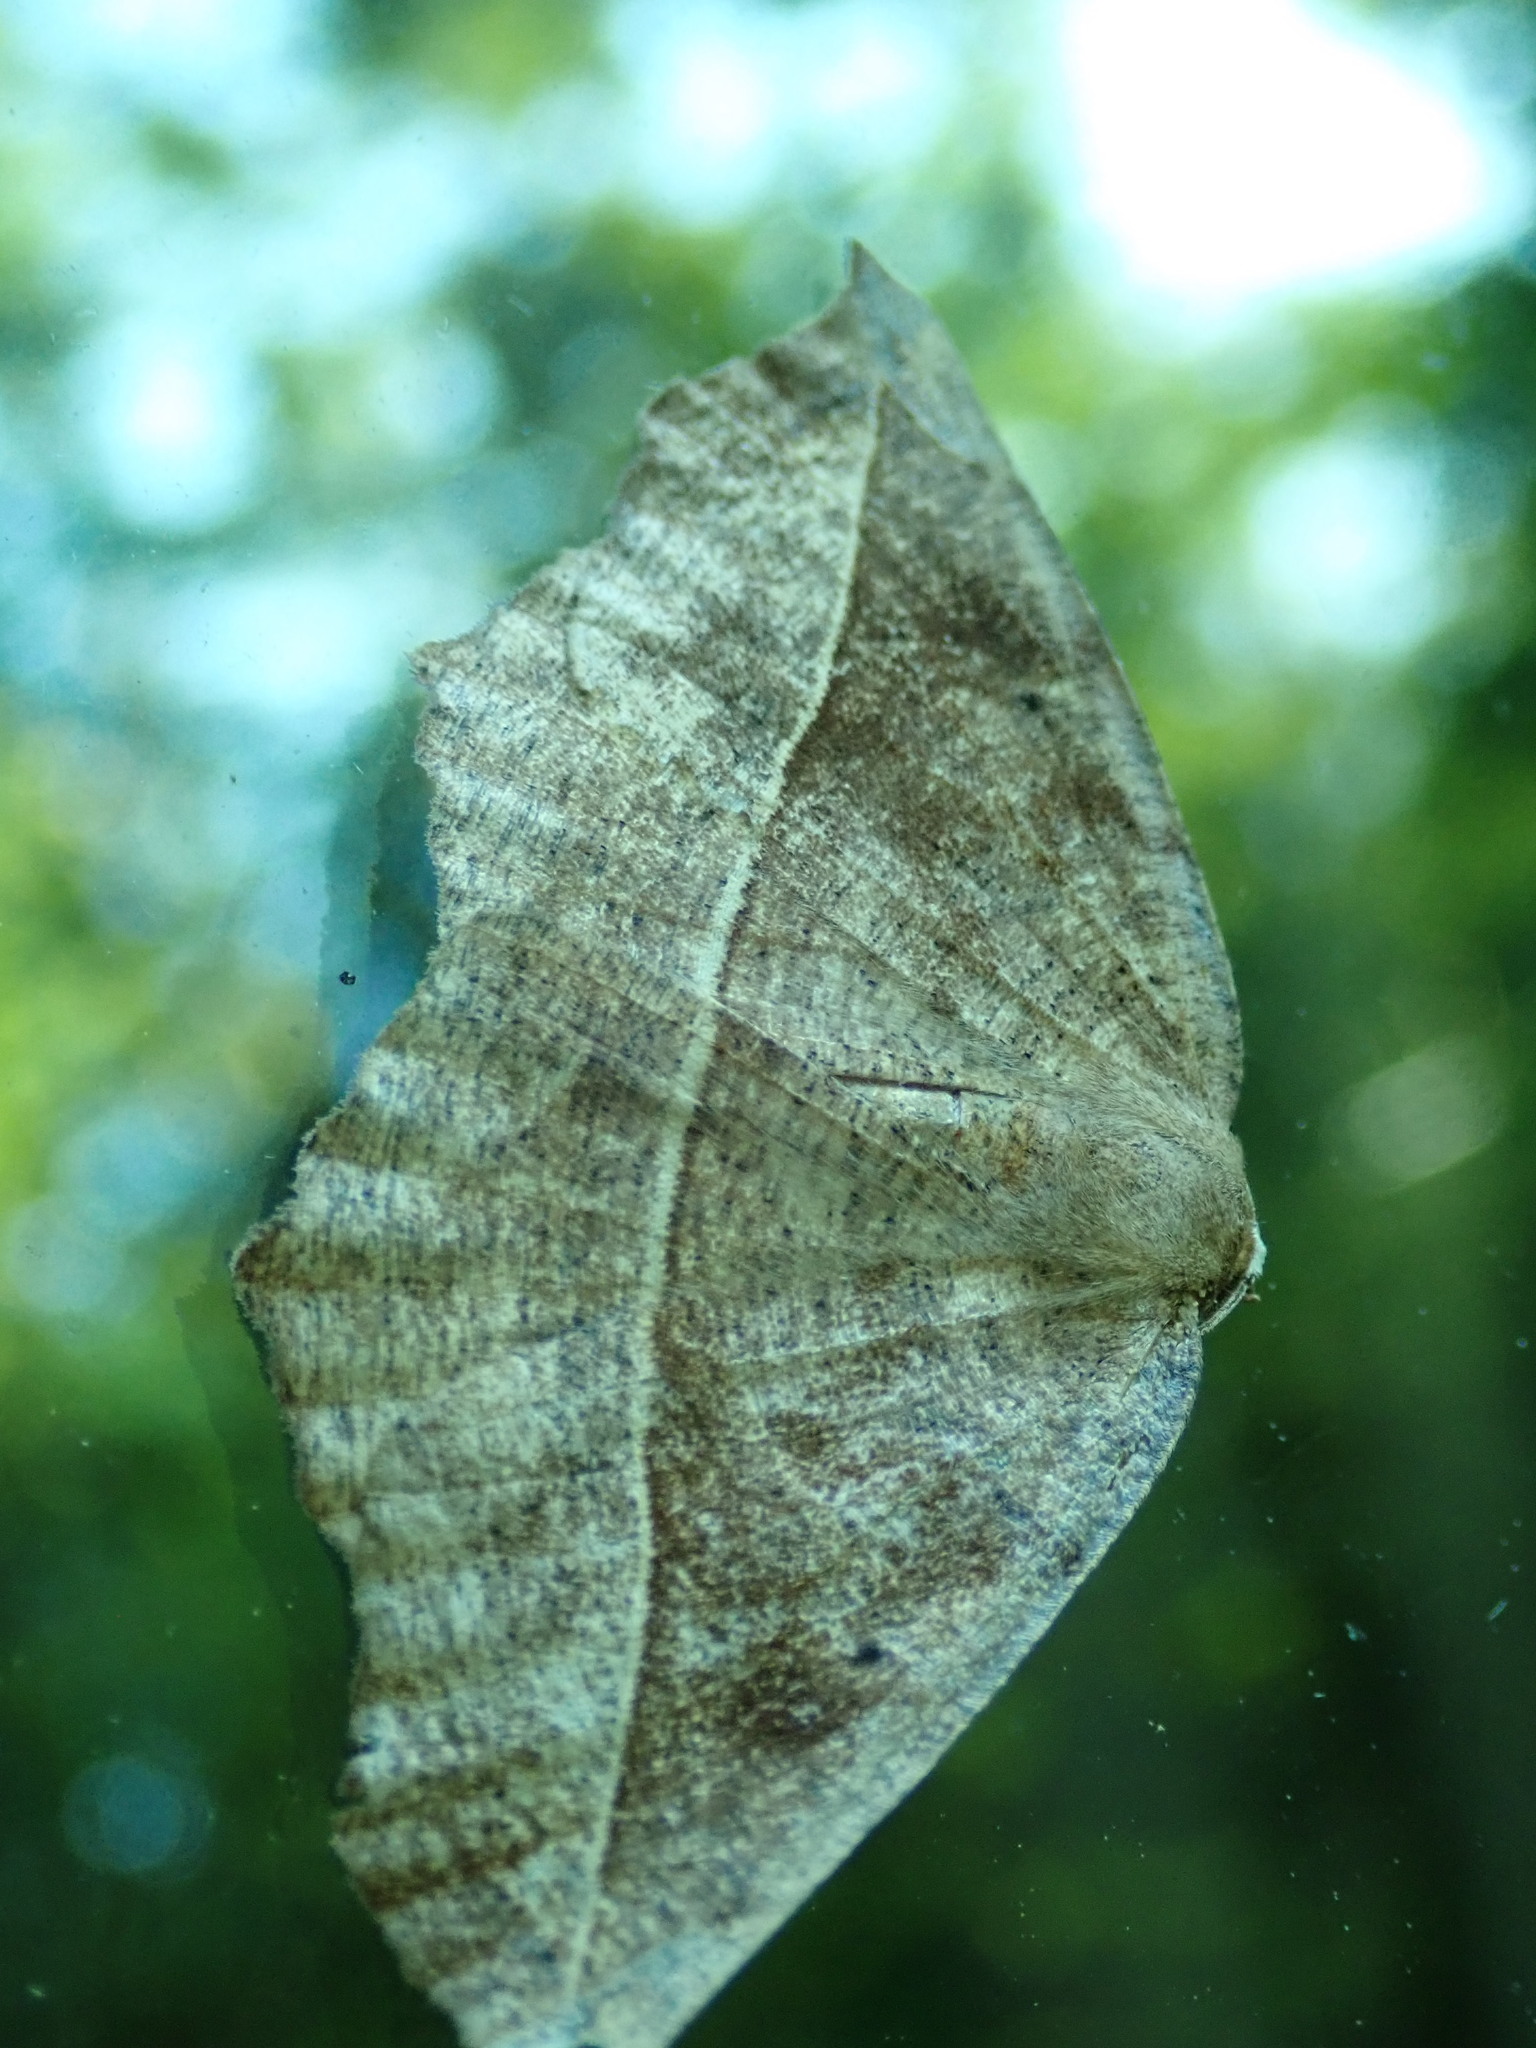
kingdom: Animalia
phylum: Arthropoda
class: Insecta
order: Lepidoptera
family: Geometridae
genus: Eutrapela
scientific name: Eutrapela clemataria
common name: Curved-toothed geometer
